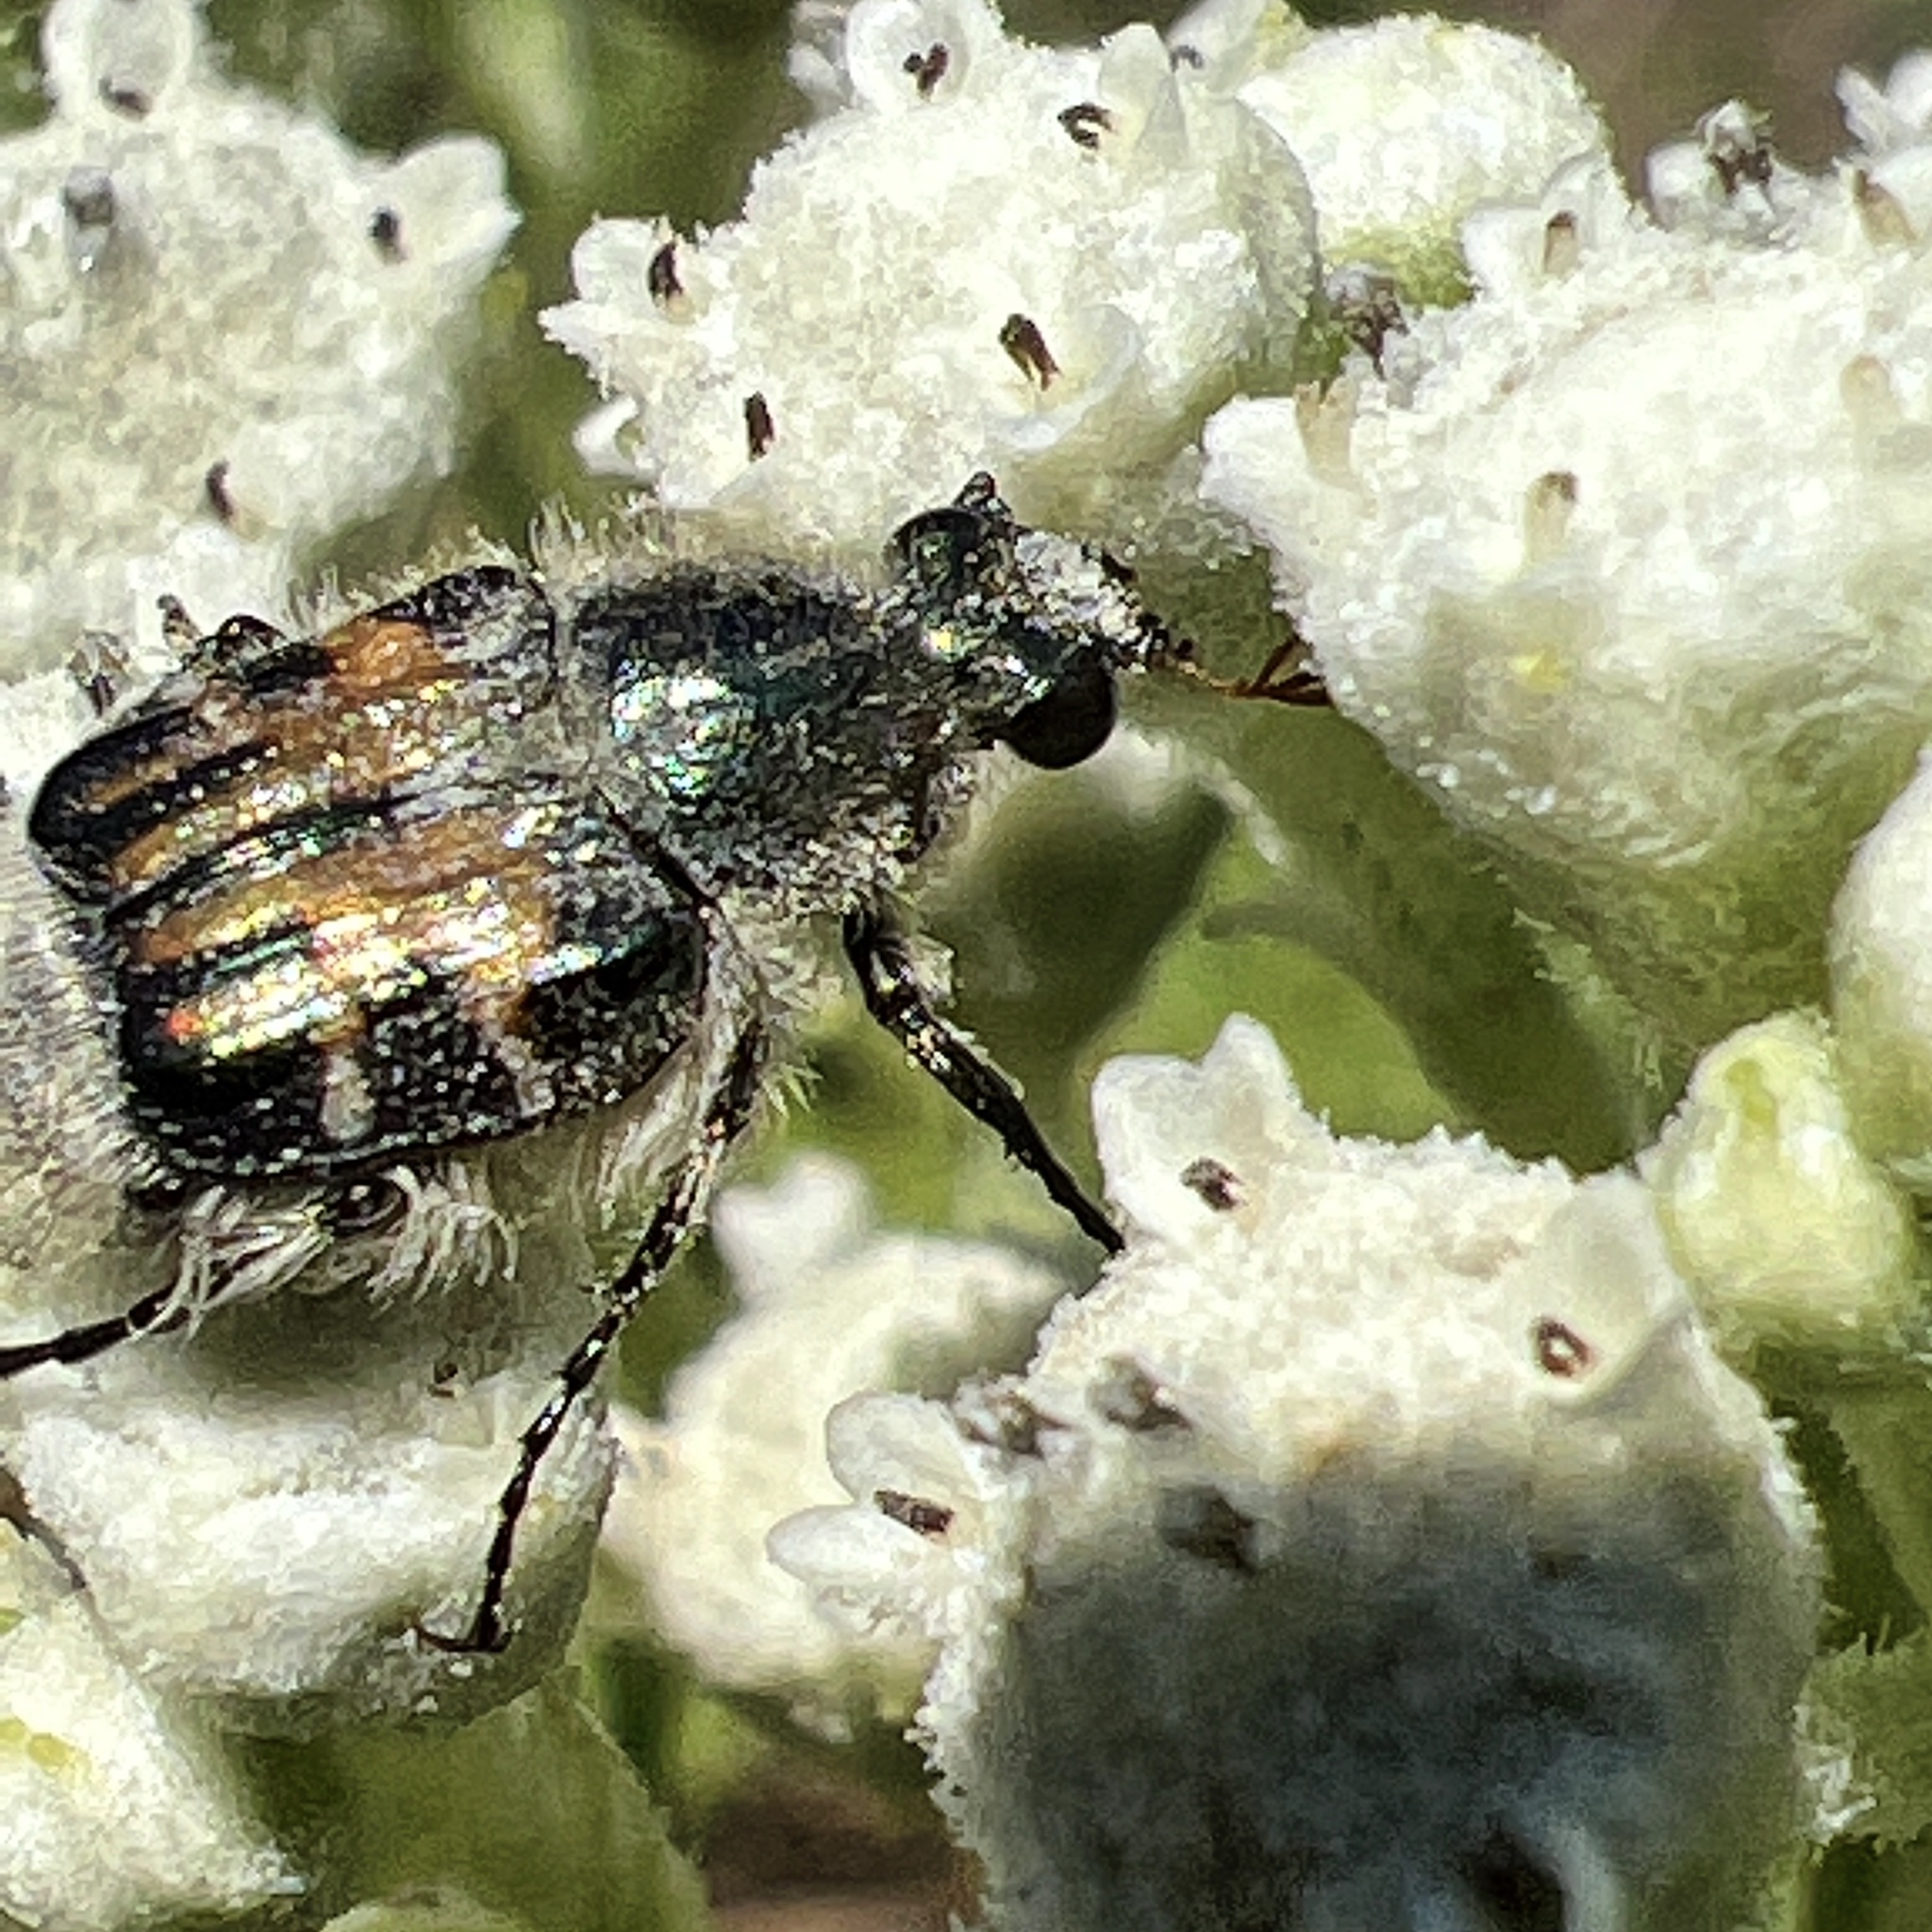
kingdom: Animalia
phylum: Arthropoda
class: Insecta
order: Coleoptera
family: Scarabaeidae
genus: Trichiotinus
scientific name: Trichiotinus affinis
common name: Hairy flower scarab
